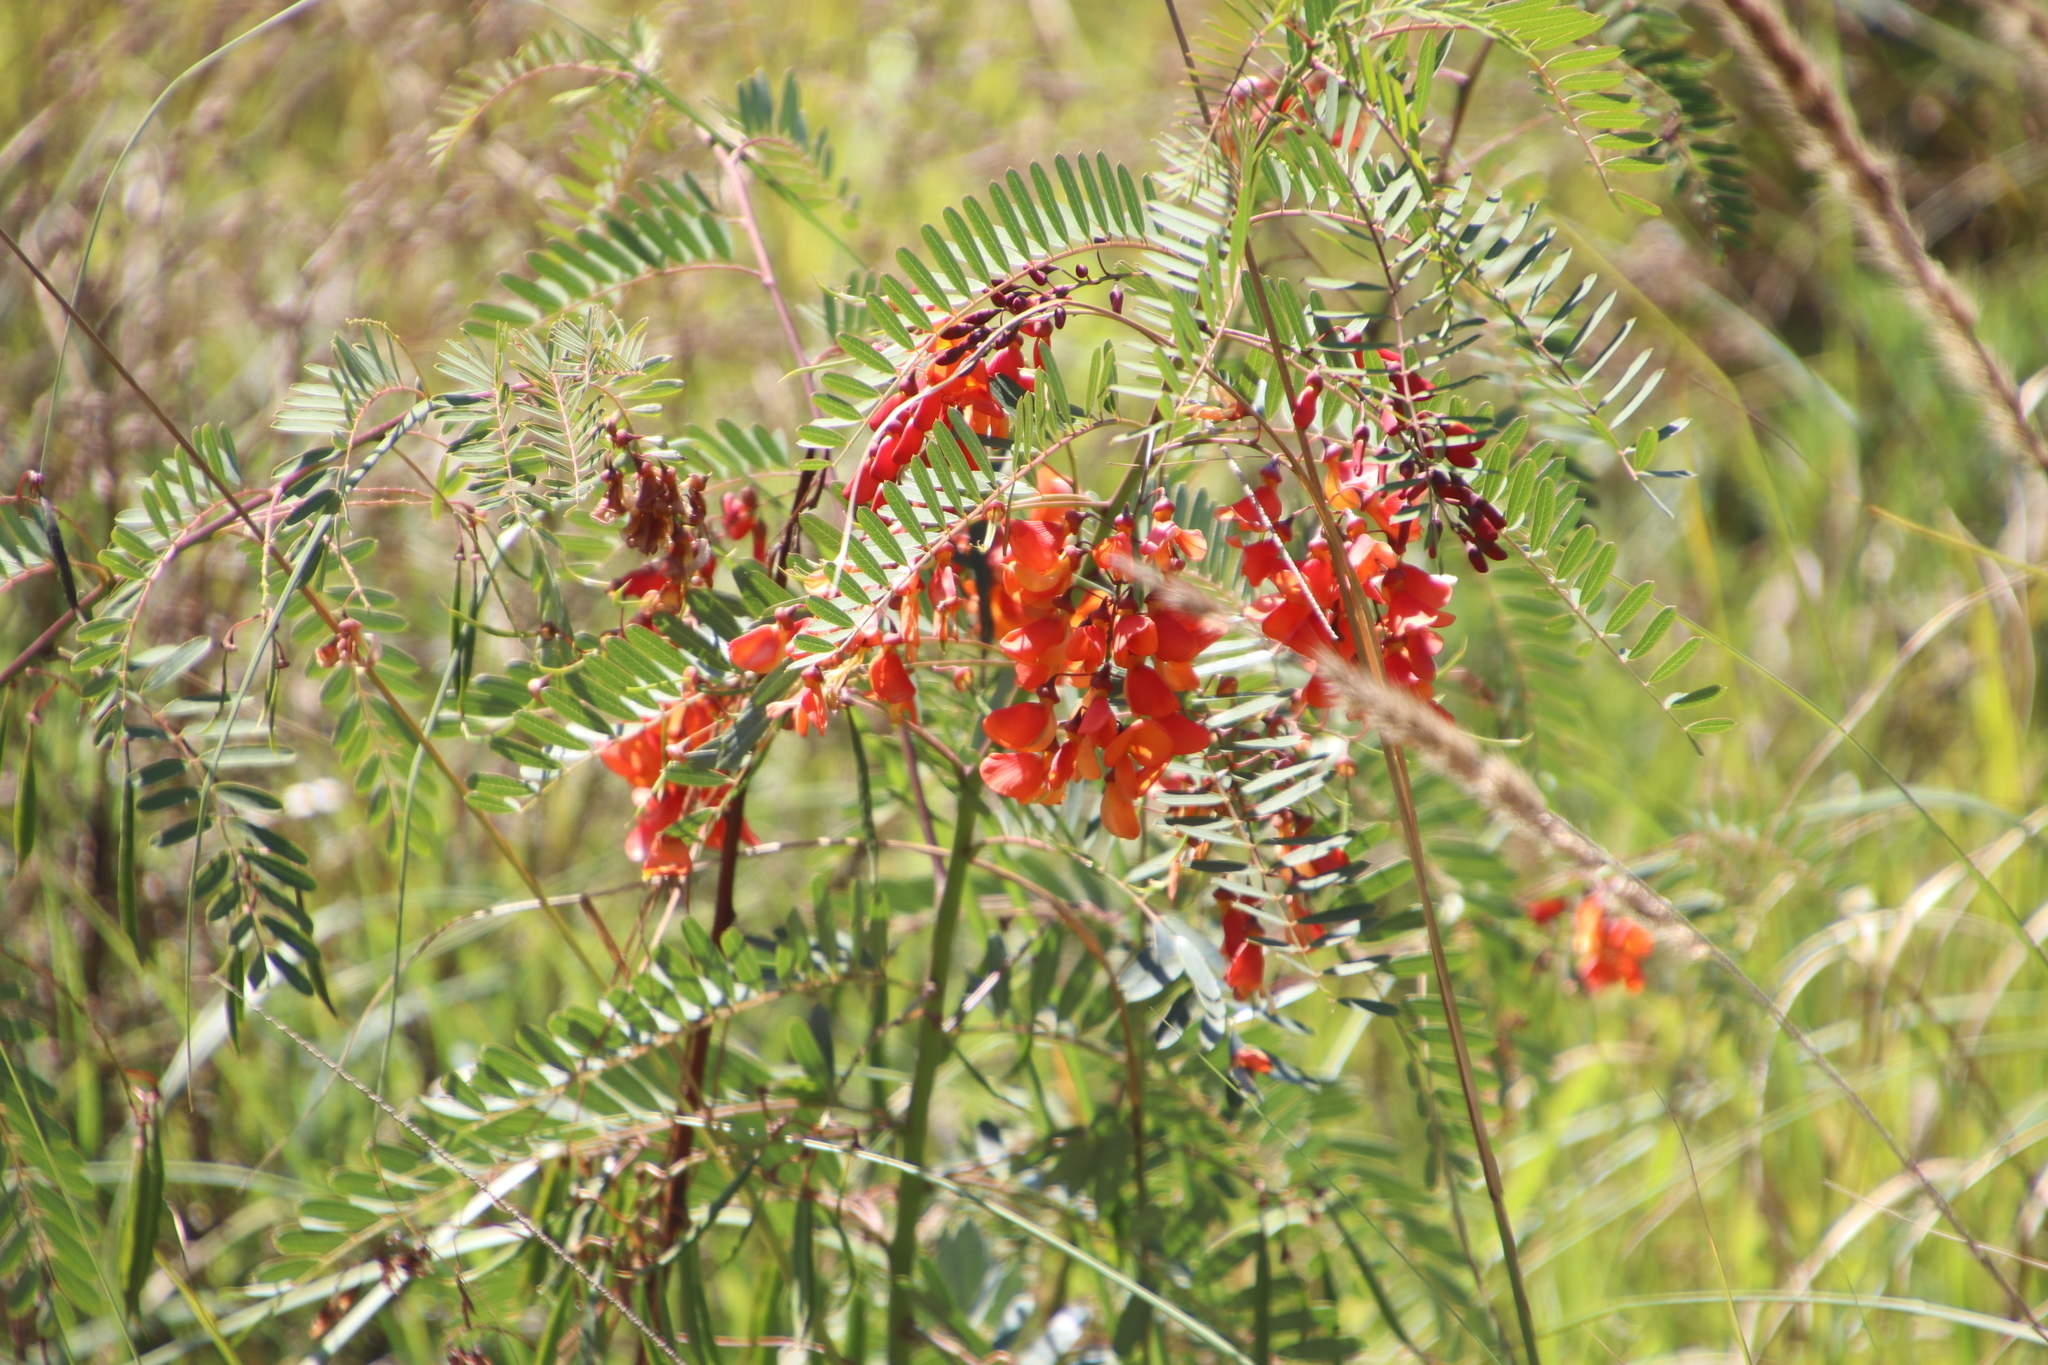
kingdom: Plantae
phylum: Tracheophyta
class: Magnoliopsida
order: Fabales
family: Fabaceae
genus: Sesbania
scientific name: Sesbania punicea
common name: Rattlebox
